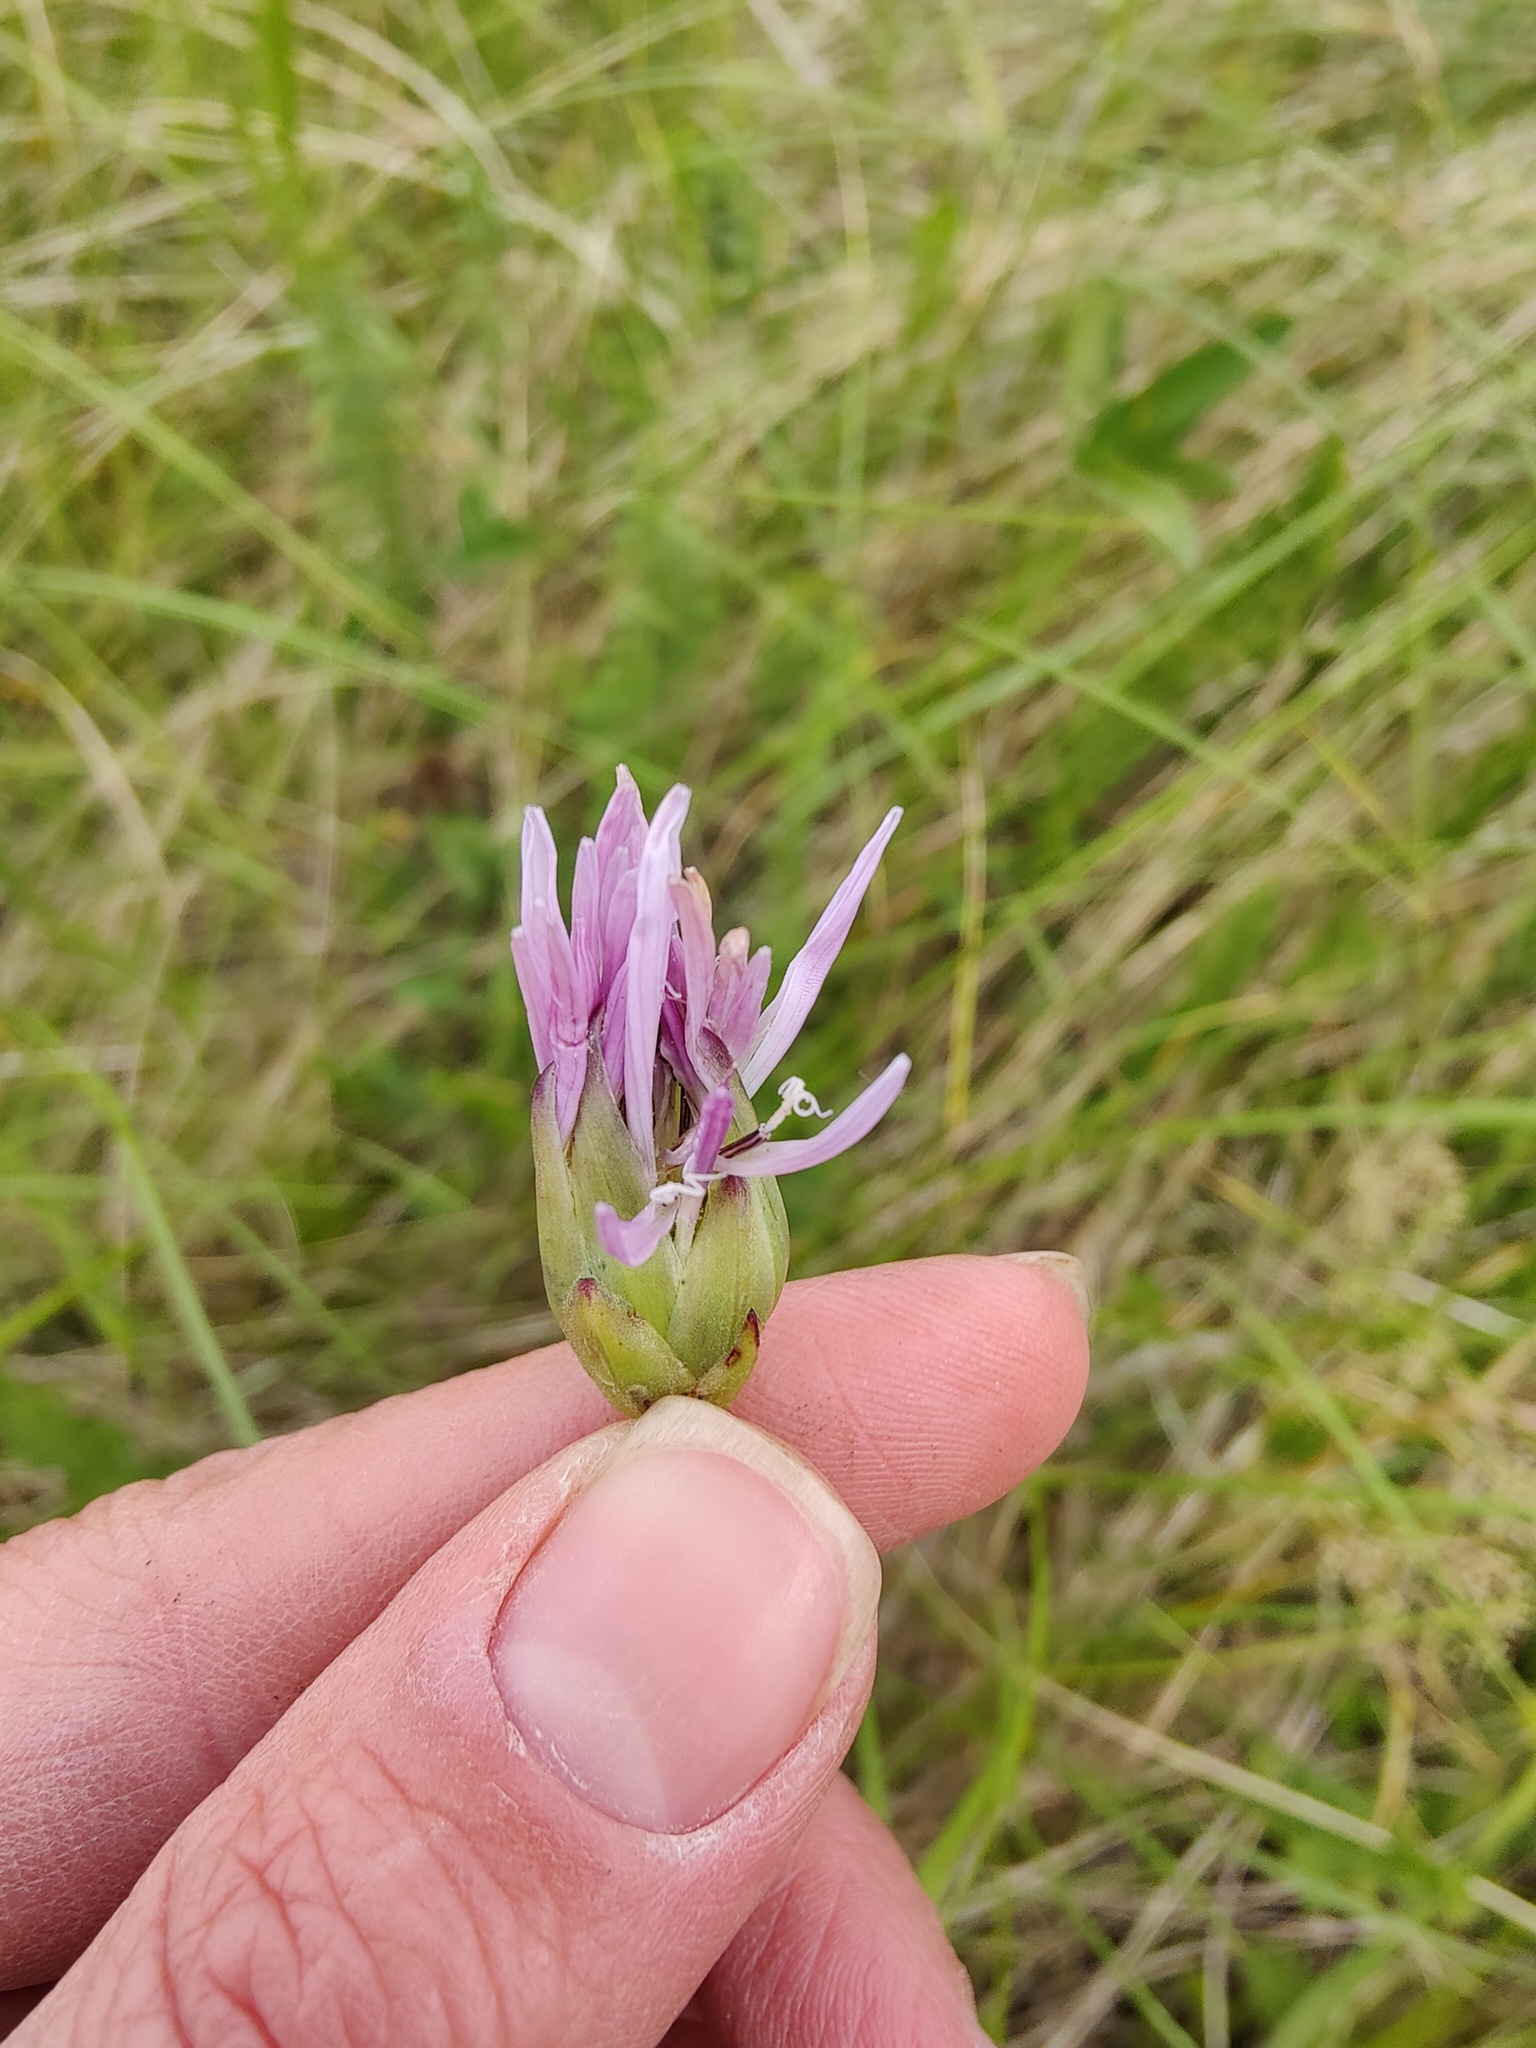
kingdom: Plantae
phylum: Tracheophyta
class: Magnoliopsida
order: Asterales
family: Asteraceae
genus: Scorzonera
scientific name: Scorzonera purpurea
